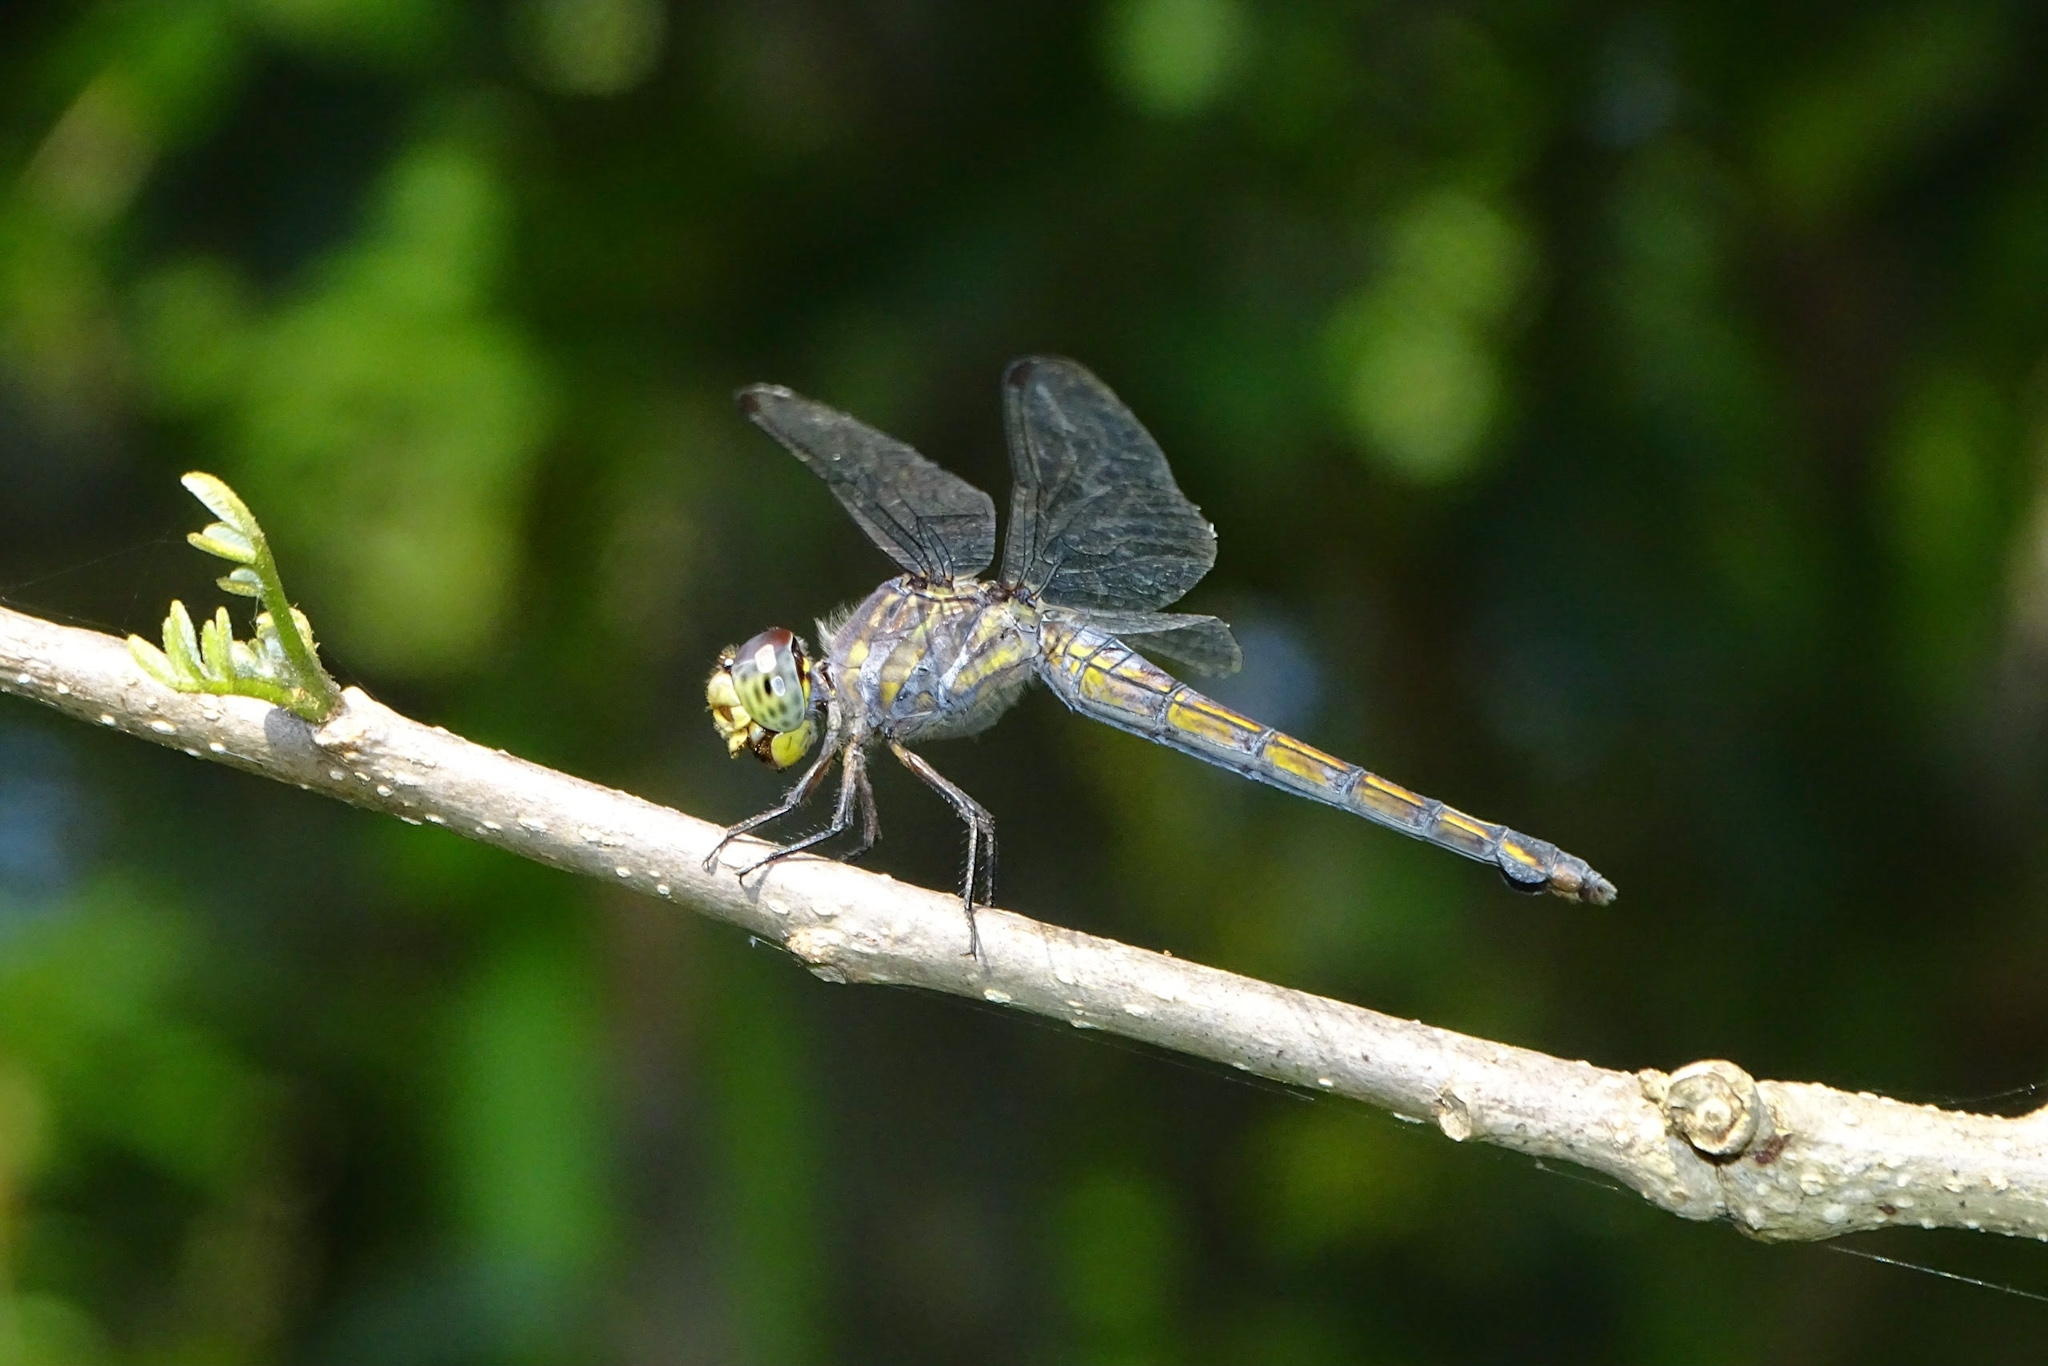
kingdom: Animalia
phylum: Arthropoda
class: Insecta
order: Odonata
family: Libellulidae
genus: Potamarcha
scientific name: Potamarcha congener
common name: Blue chaser
